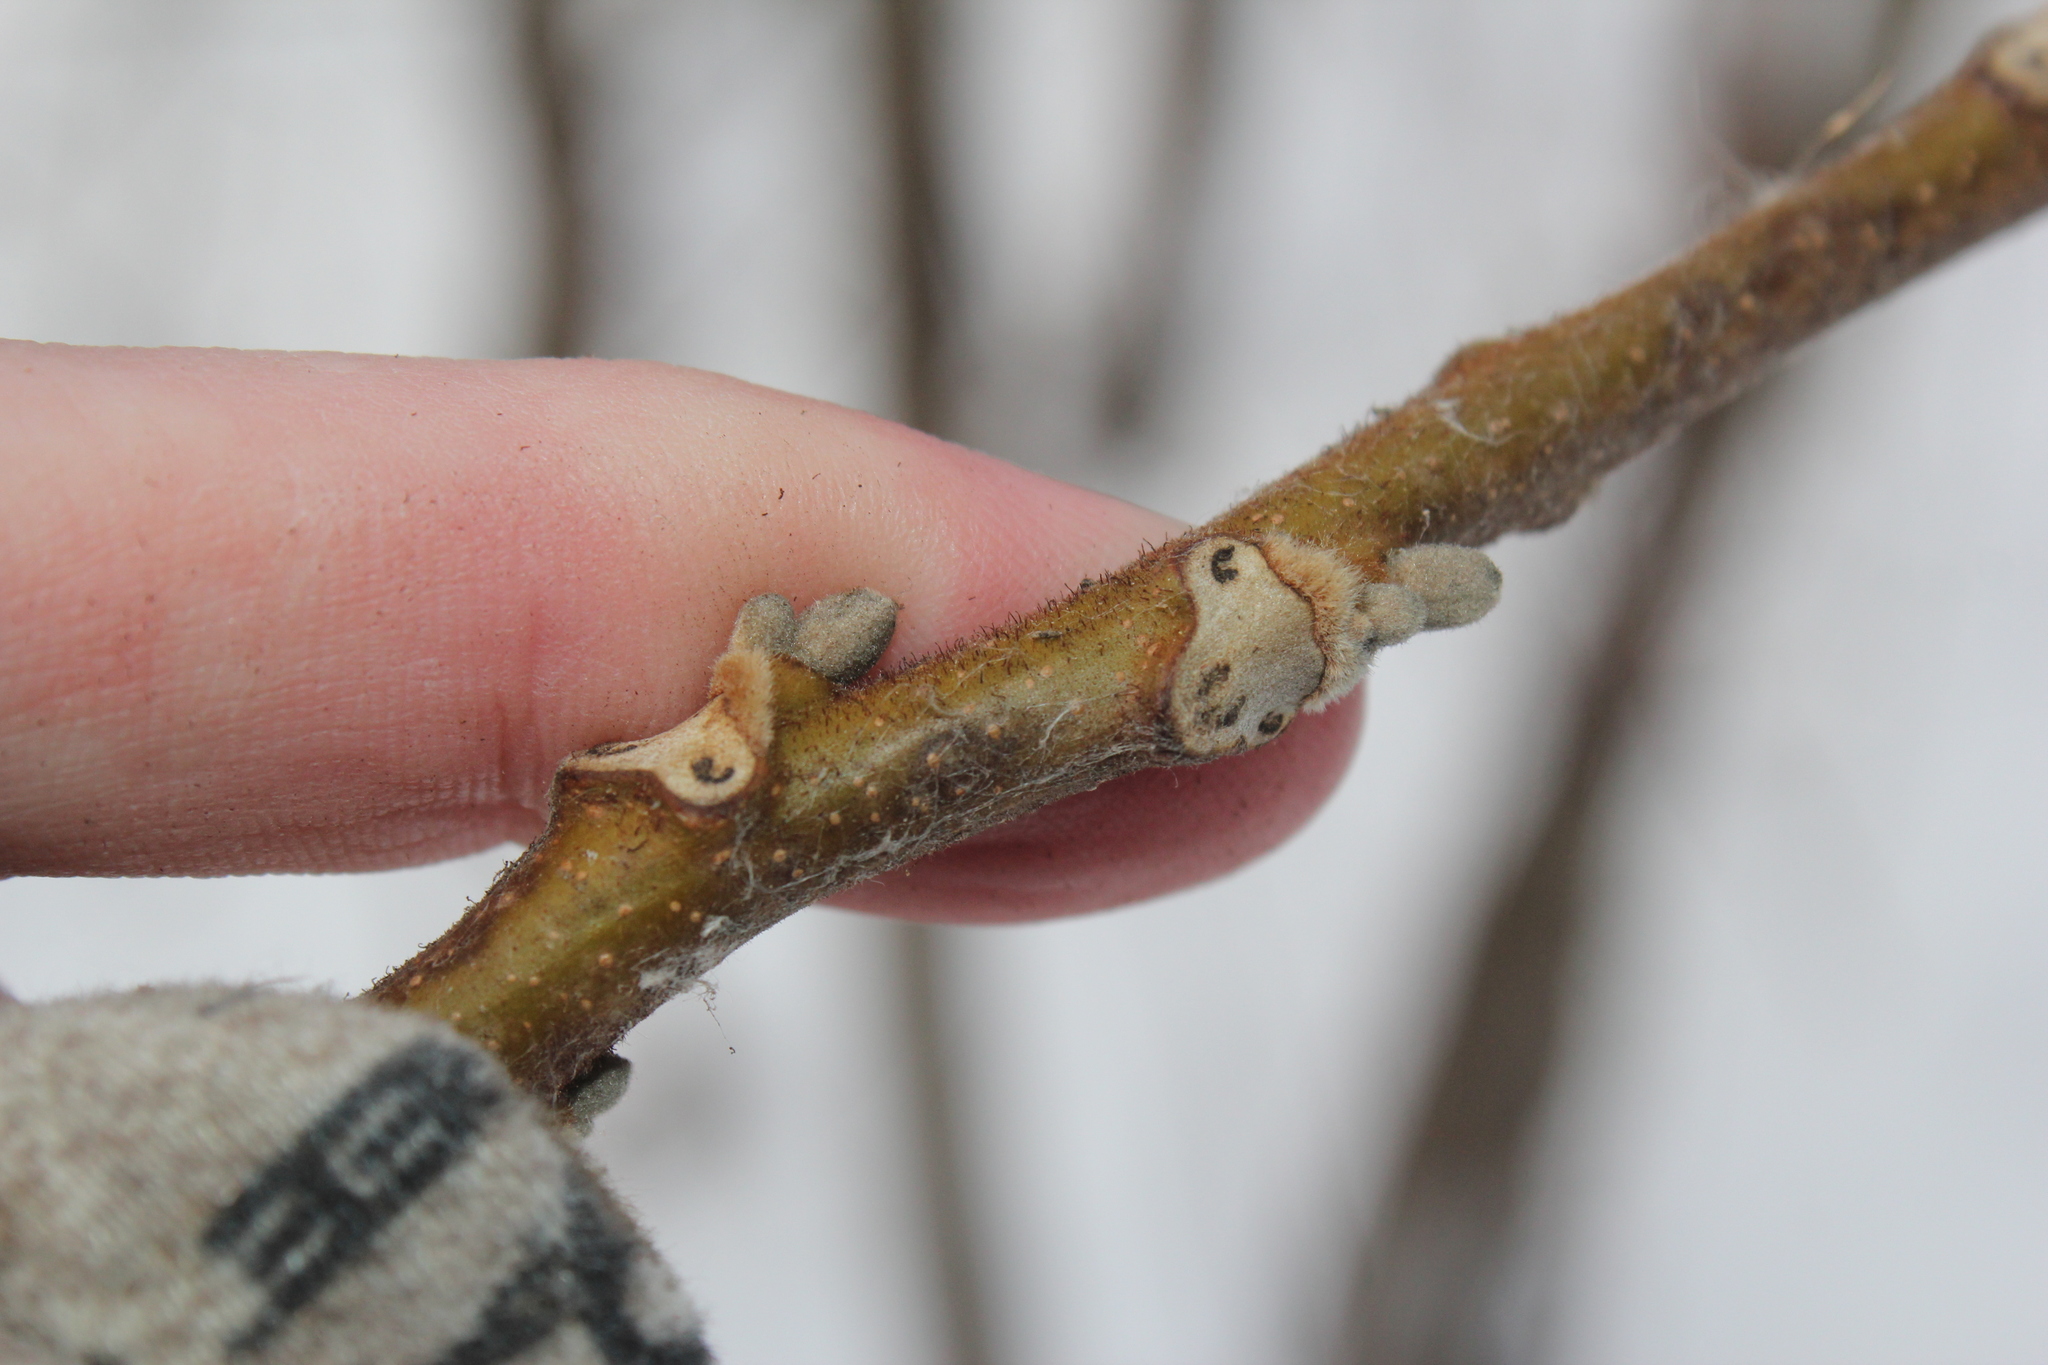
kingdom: Plantae
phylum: Tracheophyta
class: Magnoliopsida
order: Fagales
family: Juglandaceae
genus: Juglans
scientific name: Juglans cinerea
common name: Butternut
